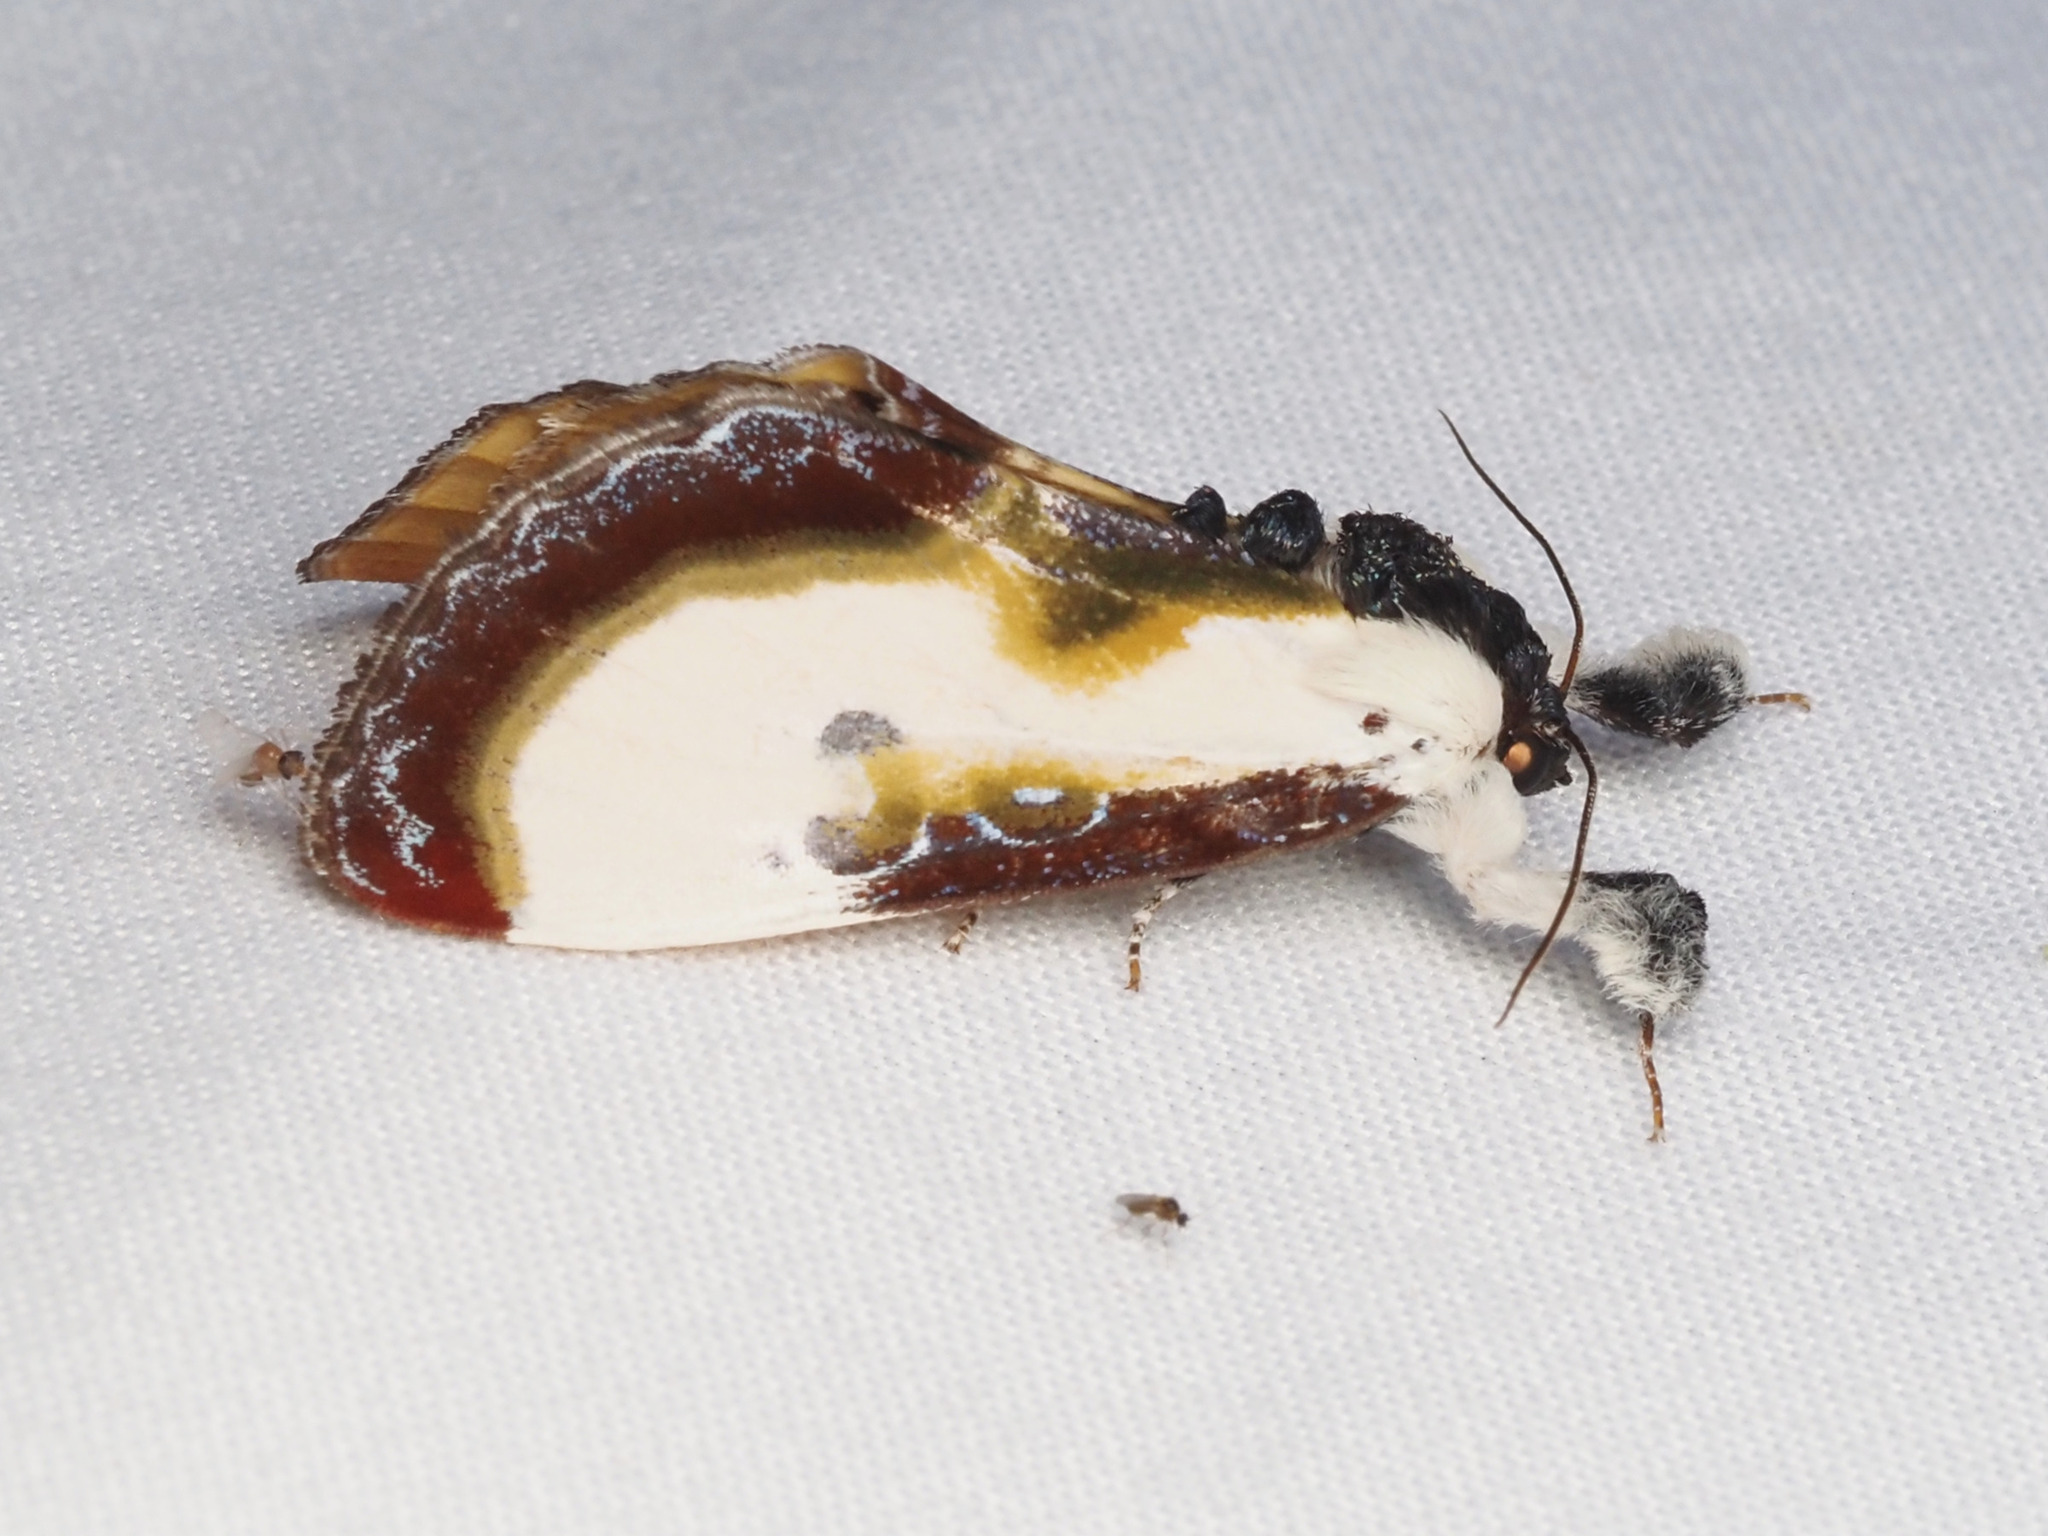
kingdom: Animalia
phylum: Arthropoda
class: Insecta
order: Lepidoptera
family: Noctuidae
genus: Eudryas
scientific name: Eudryas grata
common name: Beautiful wood-nymph
